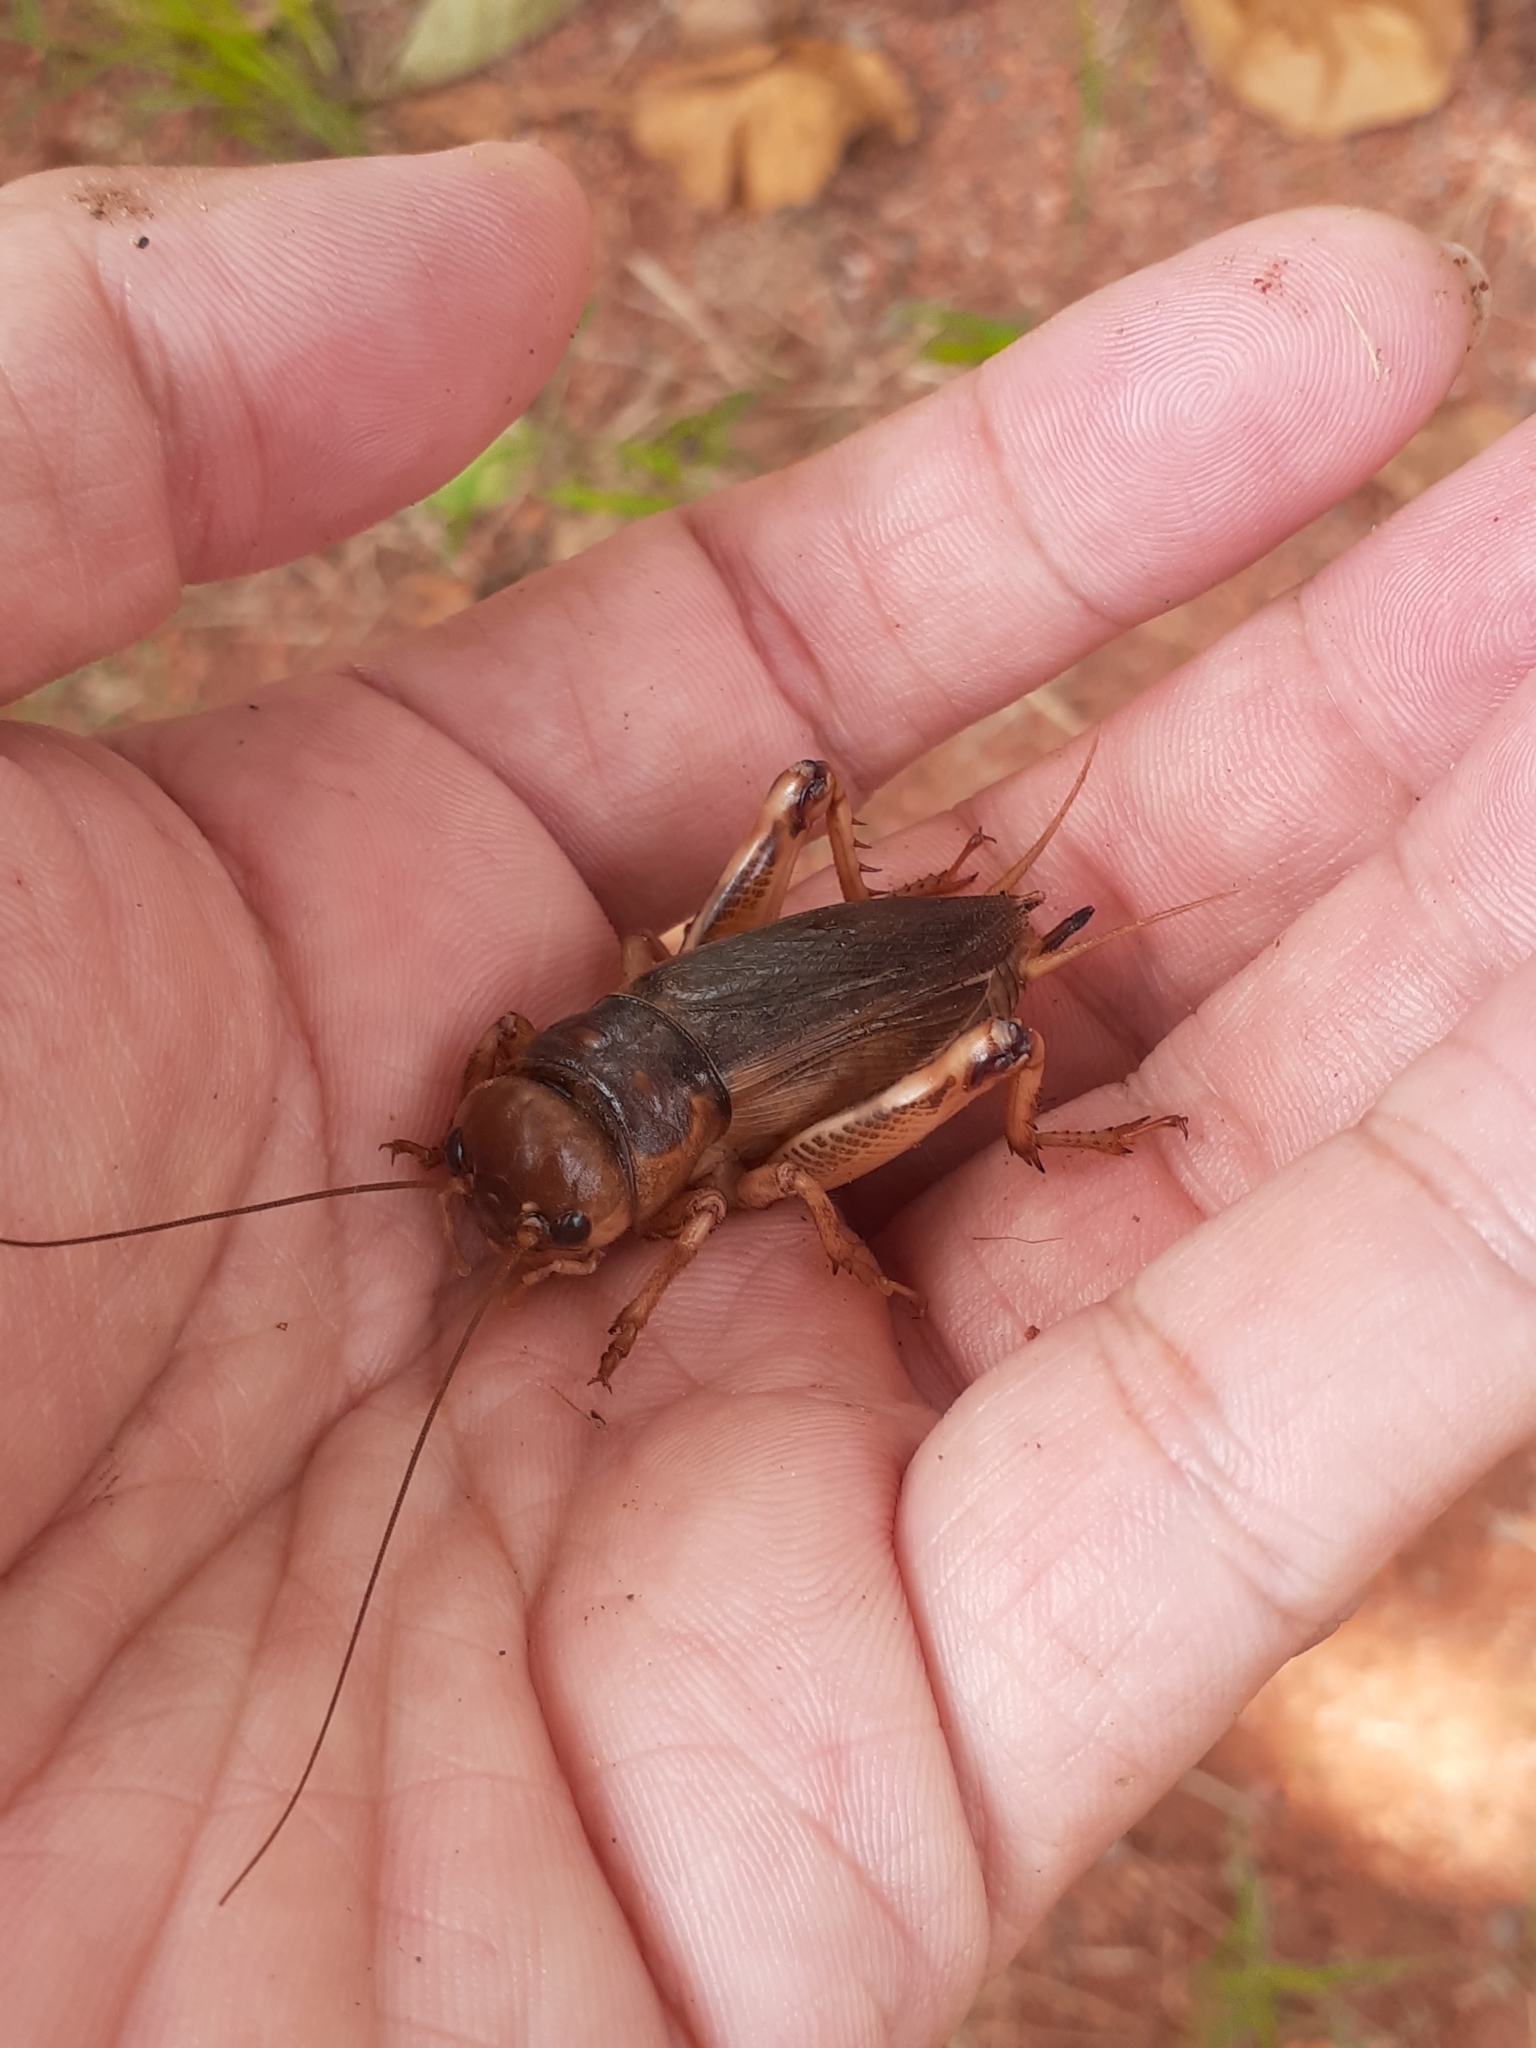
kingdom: Animalia
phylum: Arthropoda
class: Insecta
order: Orthoptera
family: Gryllidae
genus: Tarbinskiellus
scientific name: Tarbinskiellus portentosus
